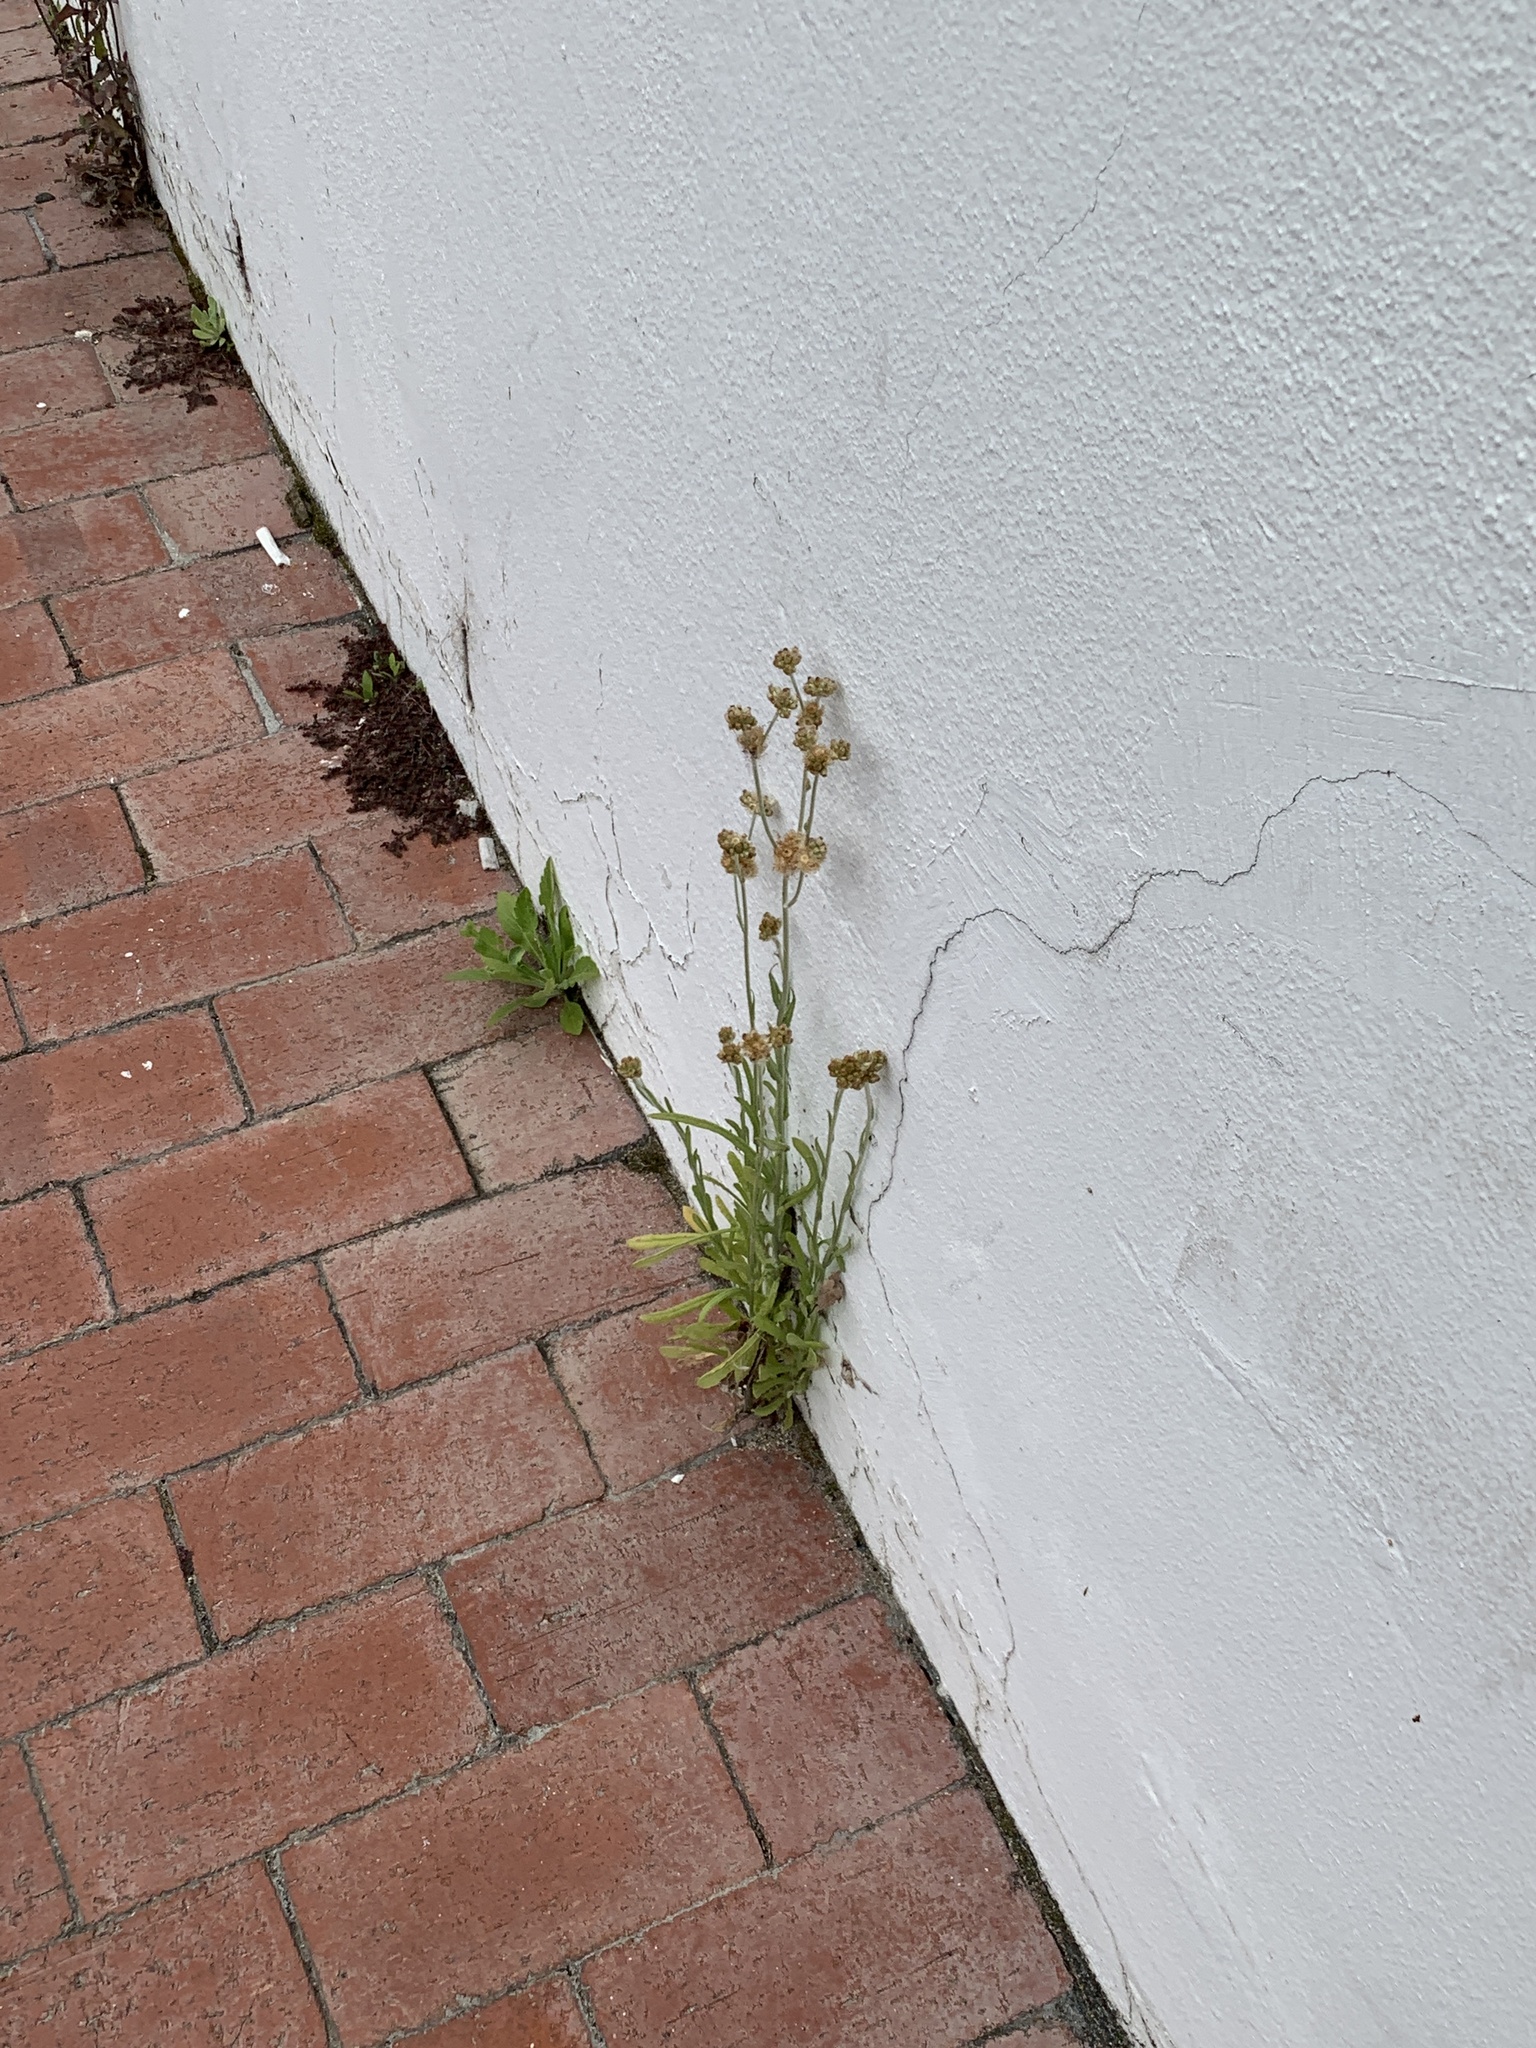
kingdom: Plantae
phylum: Tracheophyta
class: Magnoliopsida
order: Asterales
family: Asteraceae
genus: Helichrysum
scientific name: Helichrysum luteoalbum
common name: Daisy
